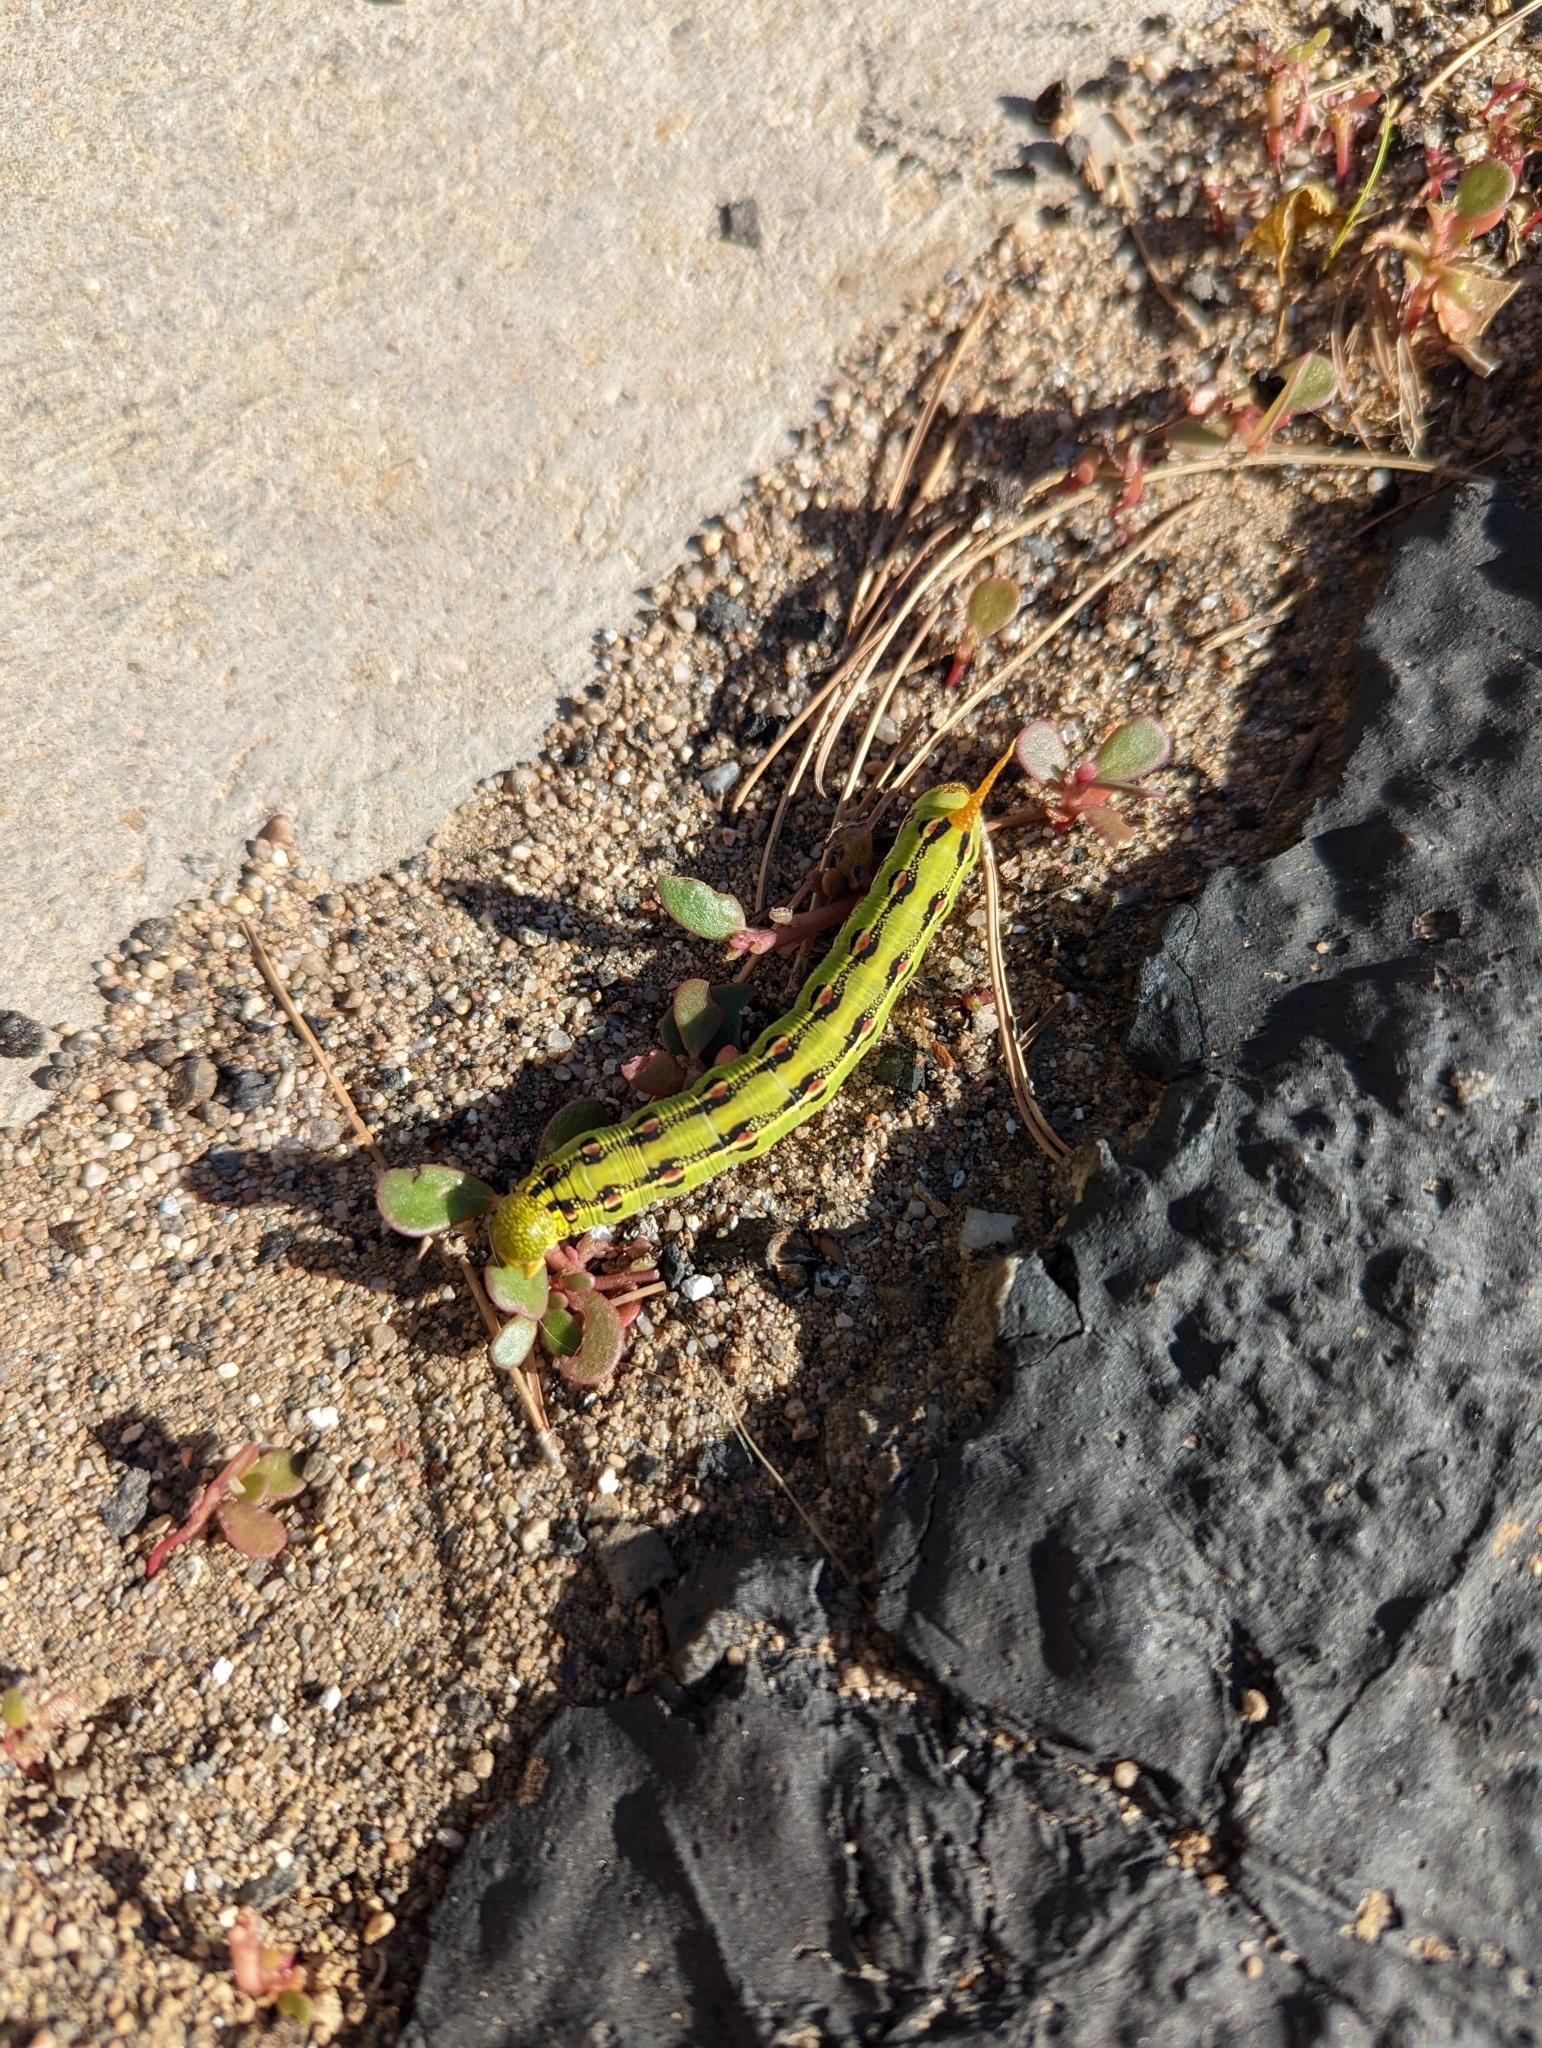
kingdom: Animalia
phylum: Arthropoda
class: Insecta
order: Lepidoptera
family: Sphingidae
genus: Hyles
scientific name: Hyles lineata
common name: White-lined sphinx
